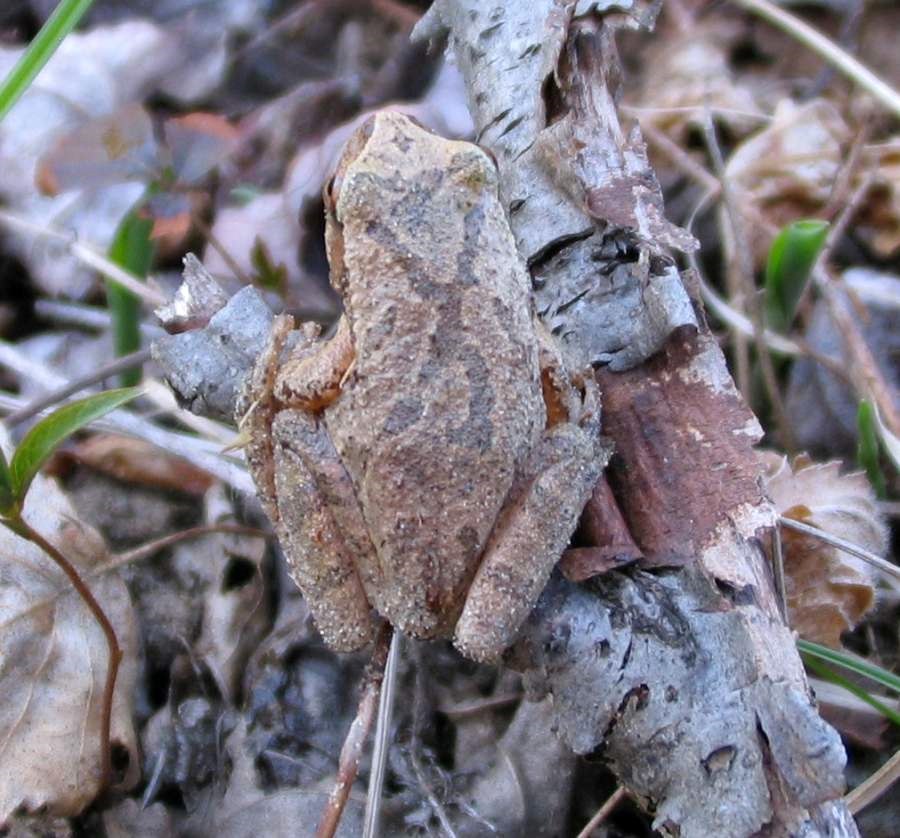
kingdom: Animalia
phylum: Chordata
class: Amphibia
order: Anura
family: Hylidae
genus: Pseudacris
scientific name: Pseudacris crucifer
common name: Spring peeper
